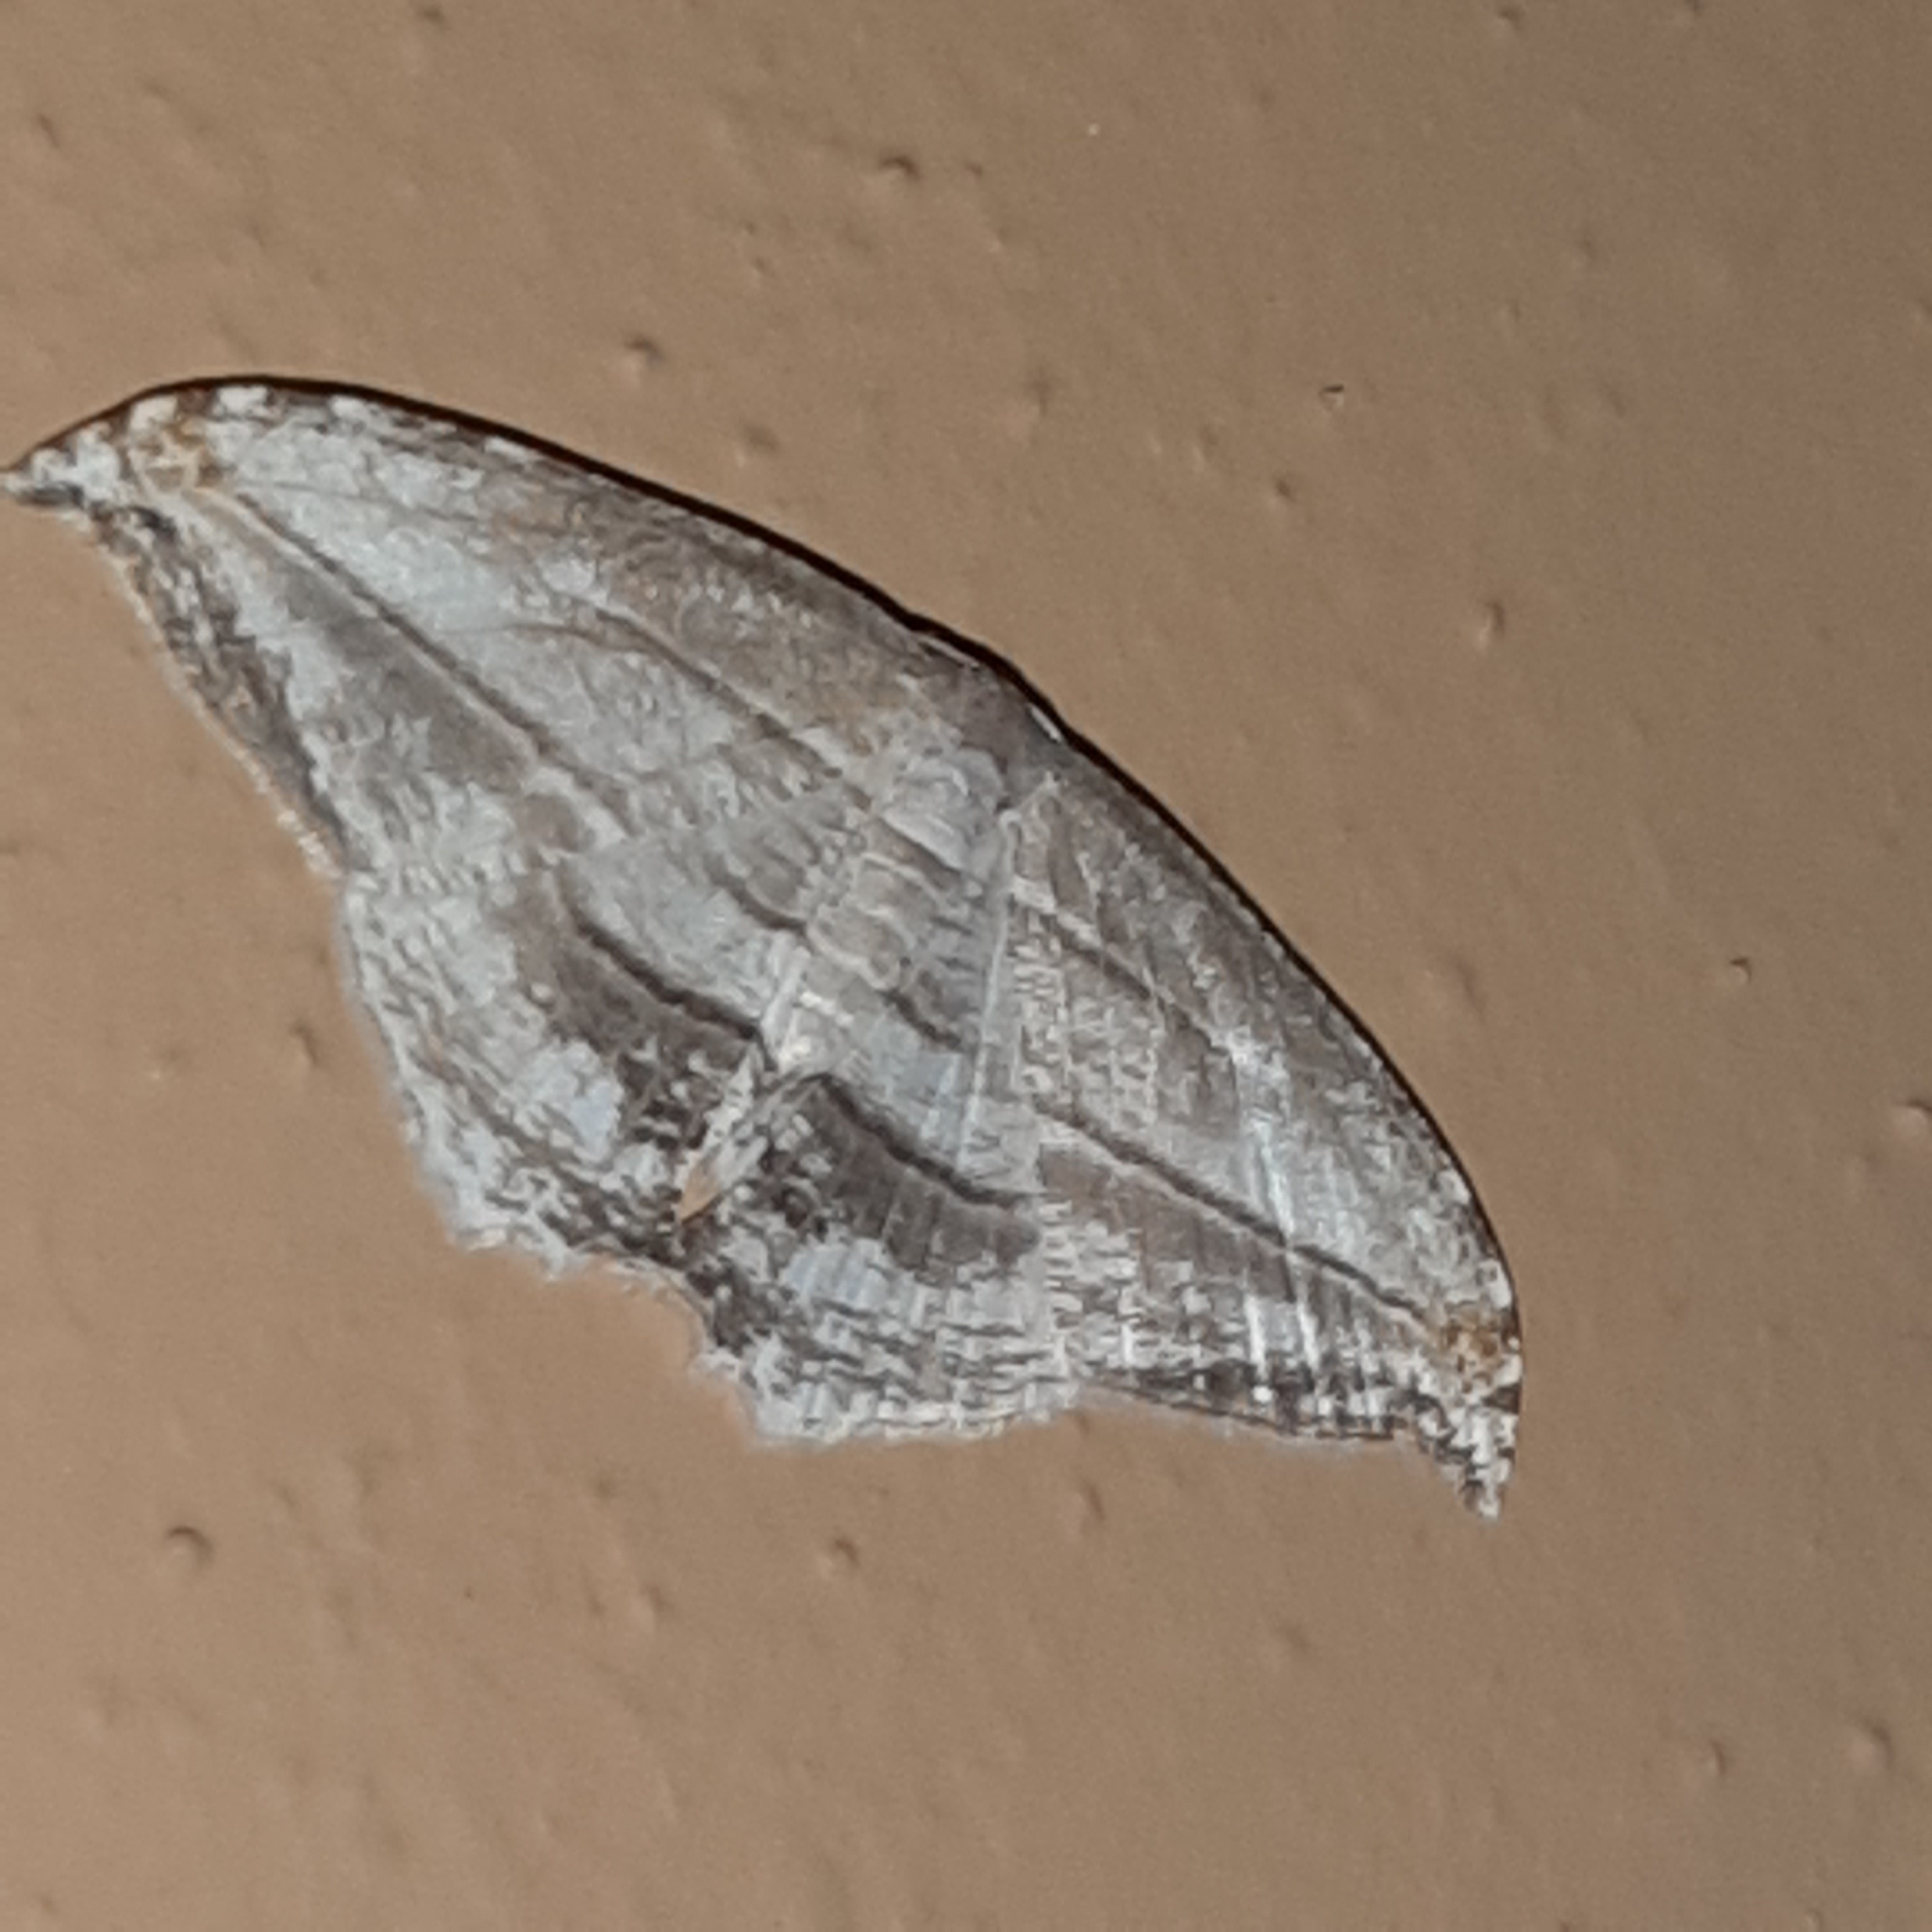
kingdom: Animalia
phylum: Arthropoda
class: Insecta
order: Lepidoptera
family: Uraniidae
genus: Morphomima
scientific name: Morphomima fulvitacta
